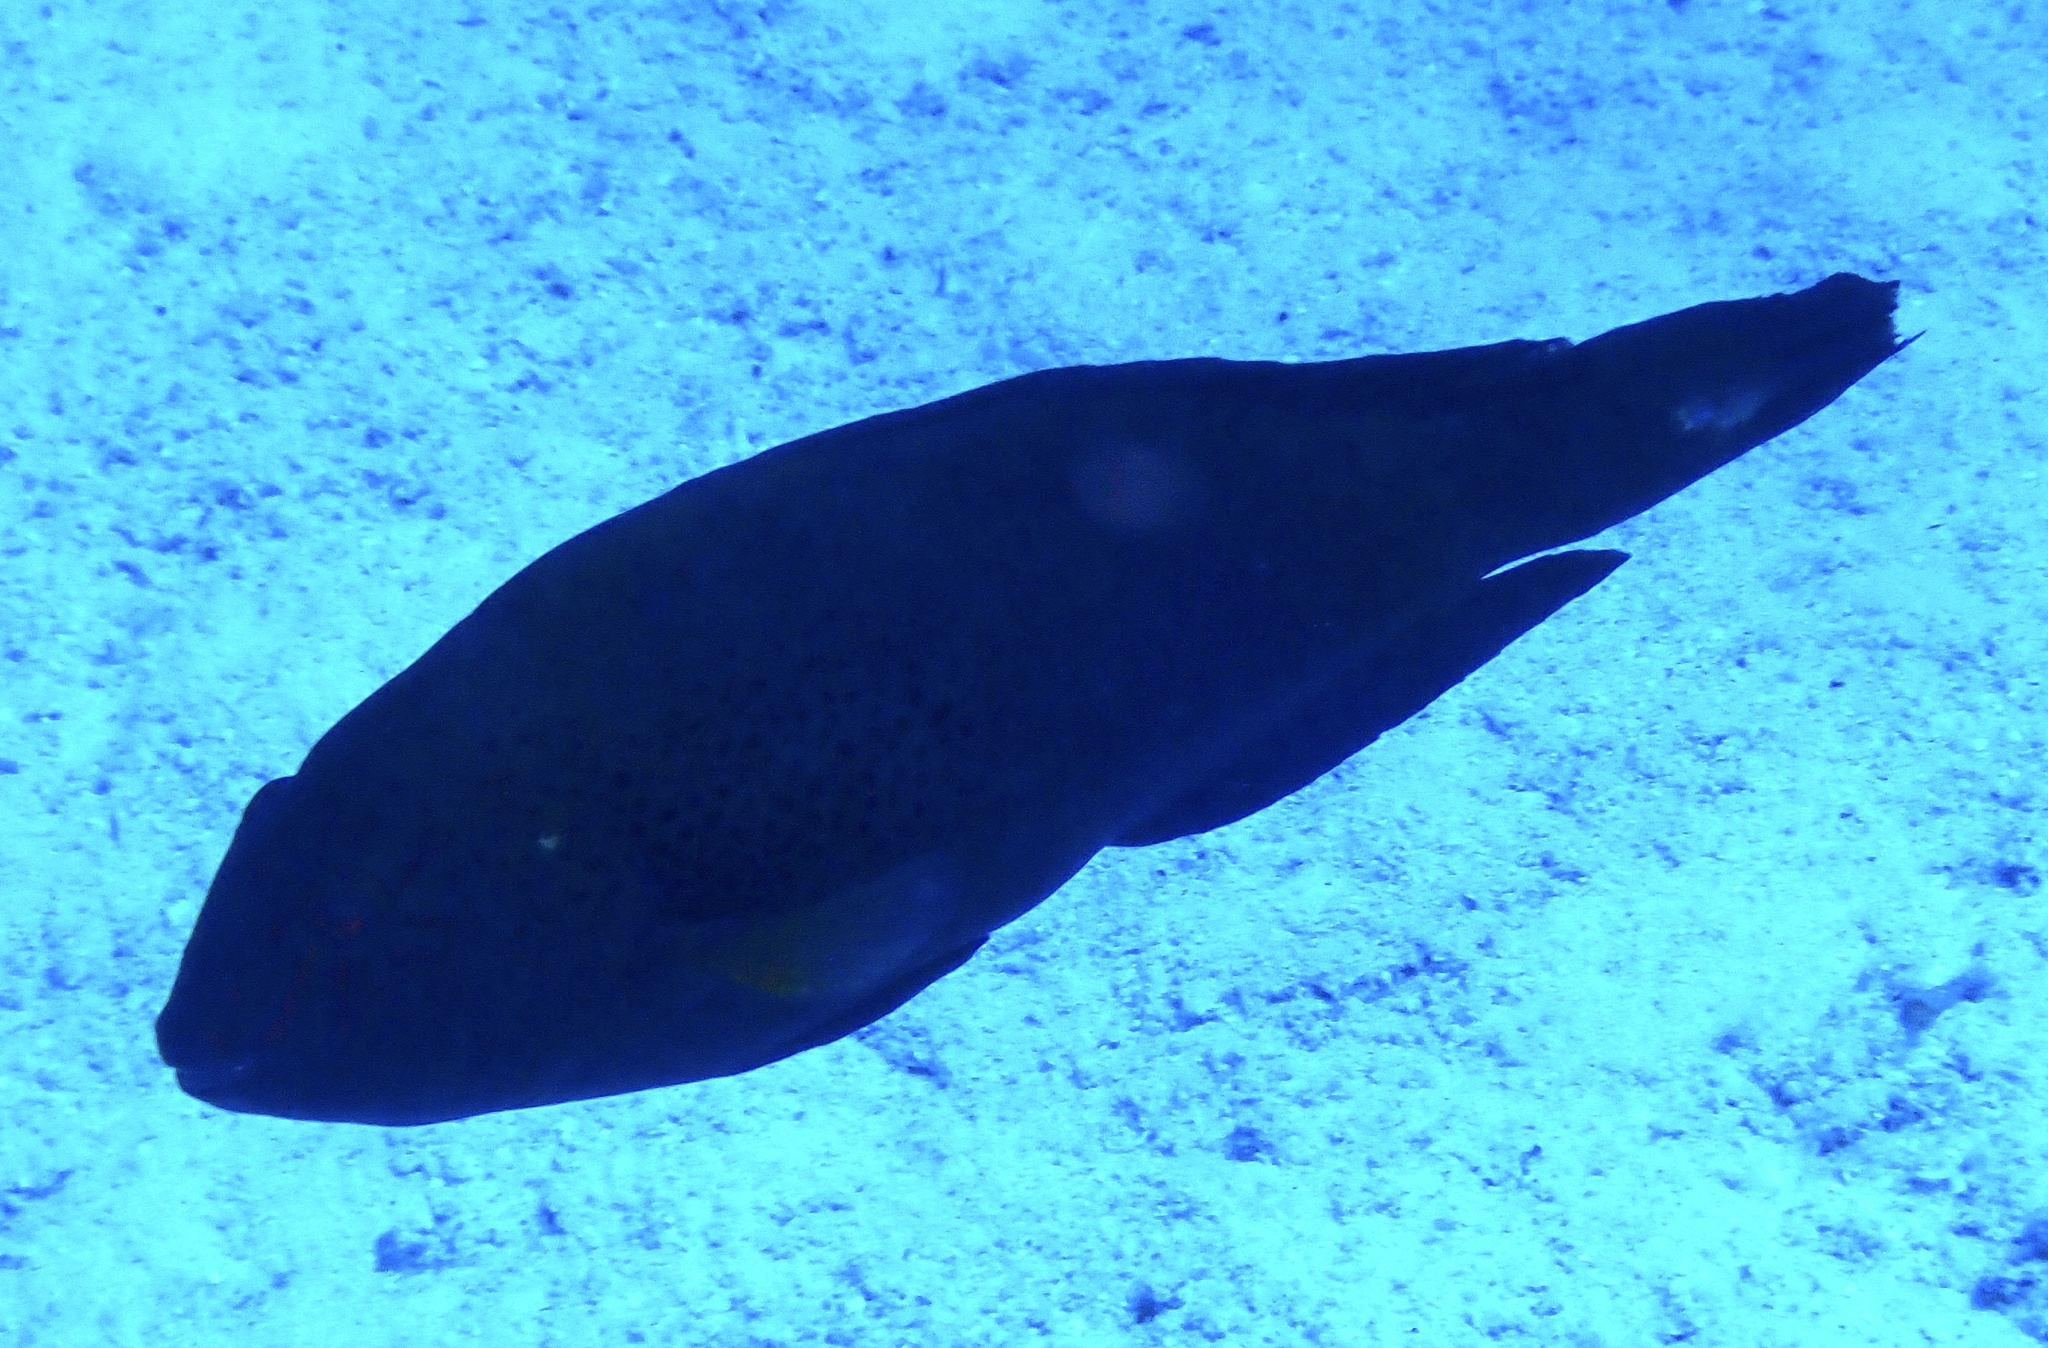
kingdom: Animalia
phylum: Chordata
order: Perciformes
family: Scaridae
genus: Calotomus
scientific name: Calotomus viridescens
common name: Dotted parrotfish
